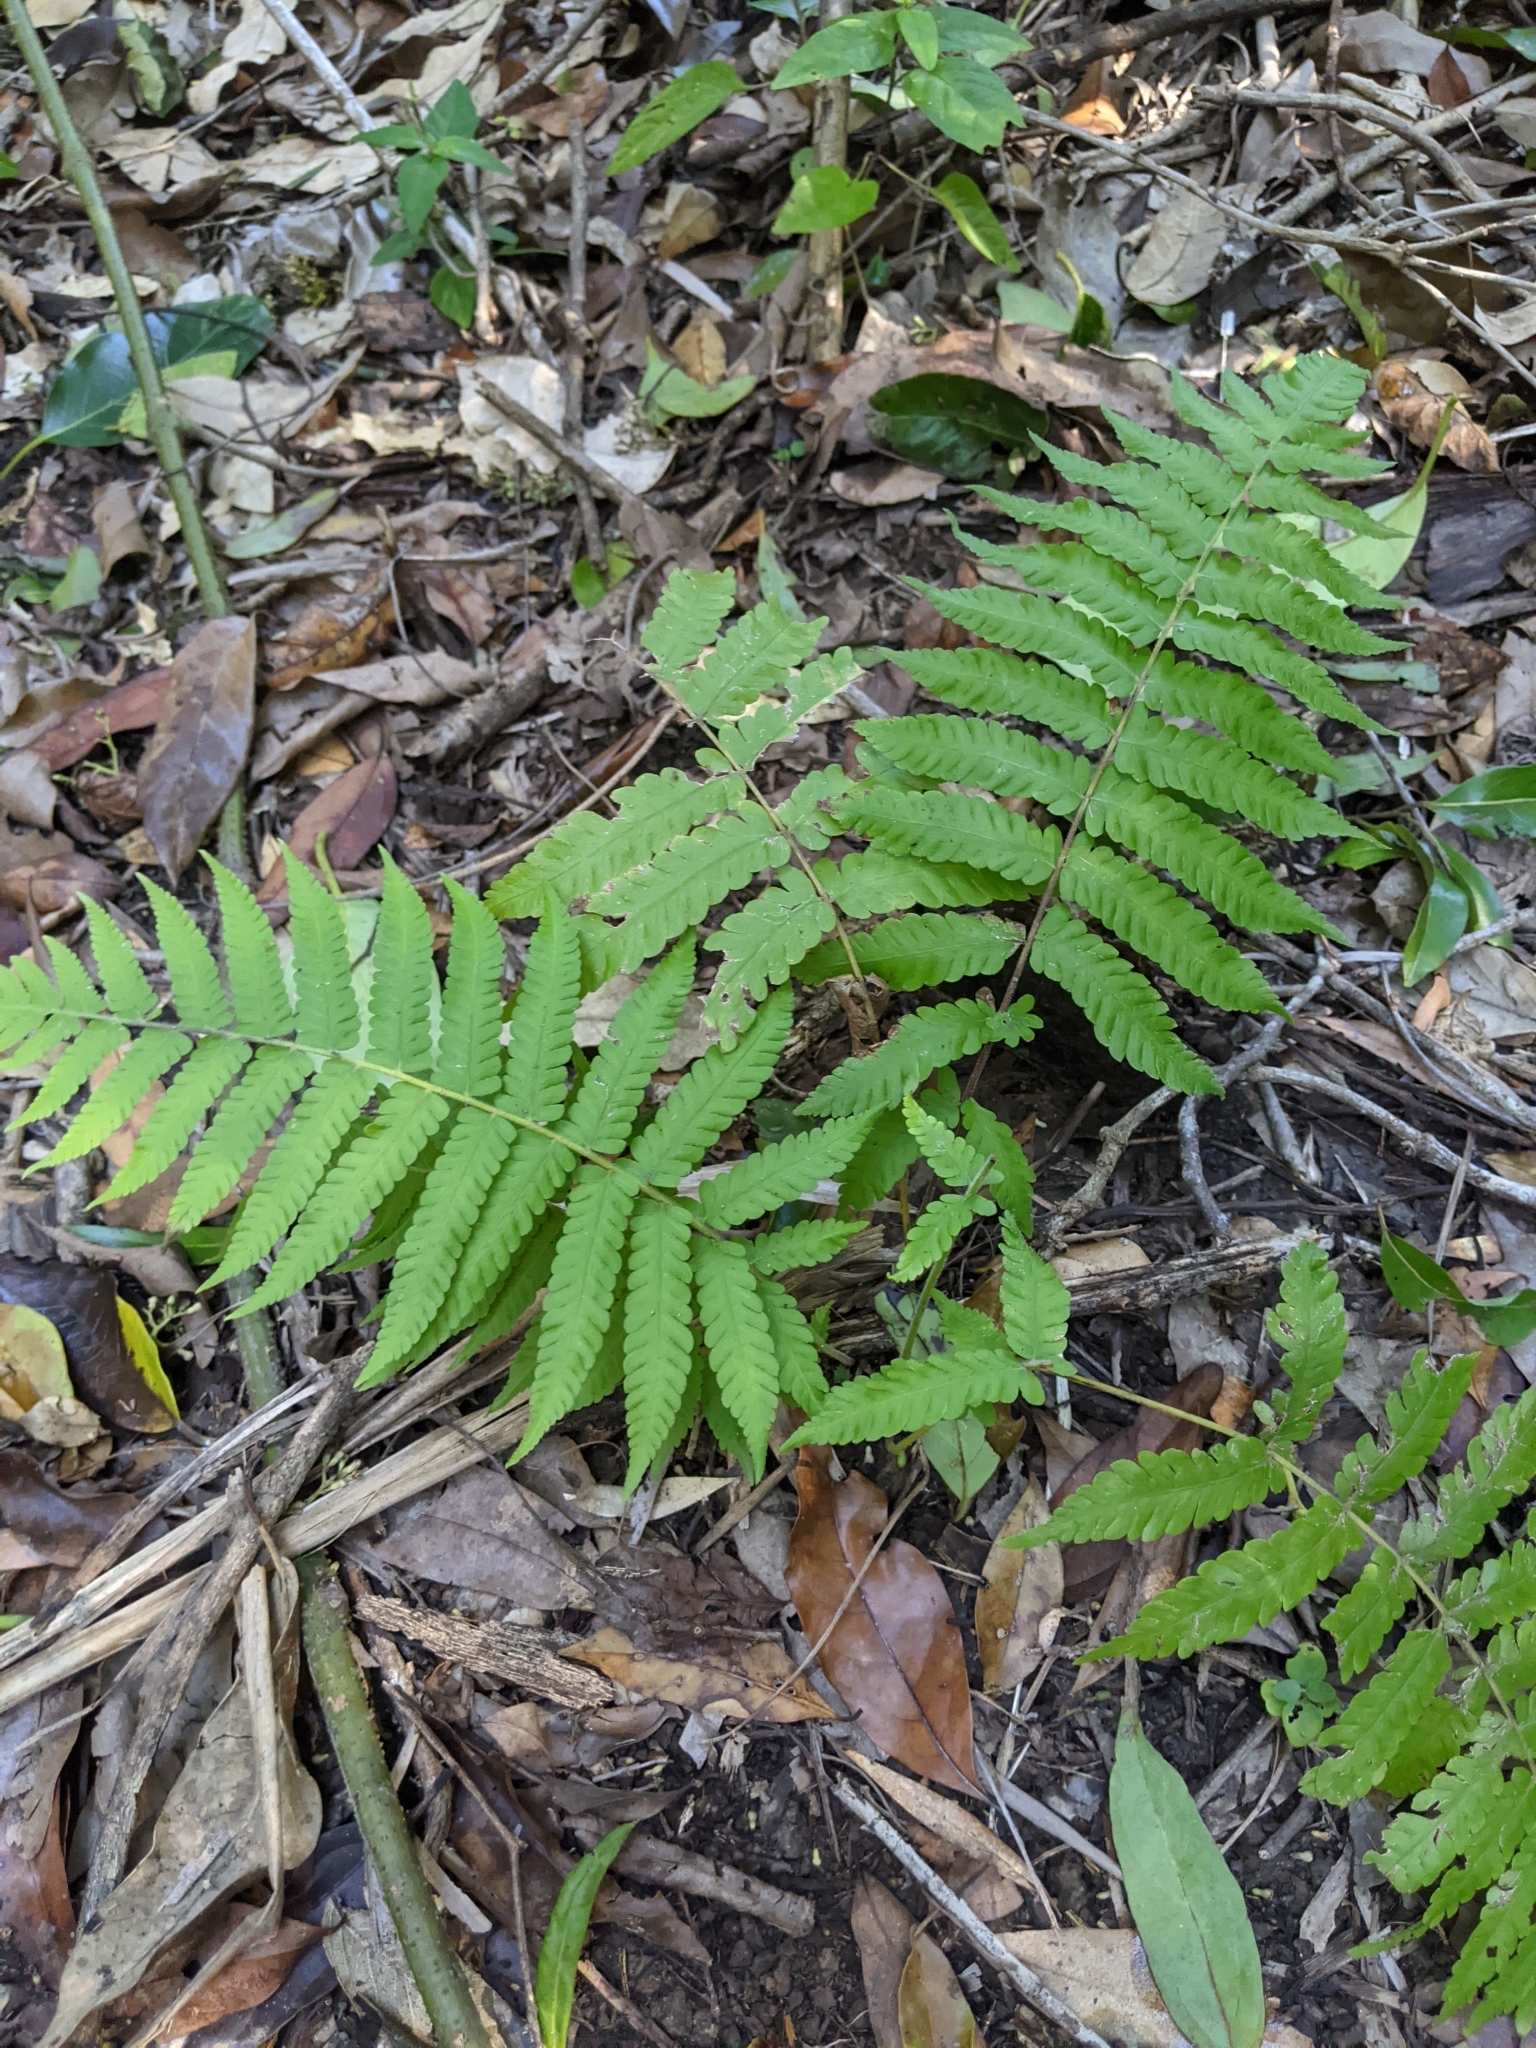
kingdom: Plantae
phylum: Tracheophyta
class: Polypodiopsida
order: Polypodiales
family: Thelypteridaceae
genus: Christella
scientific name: Christella dentata
